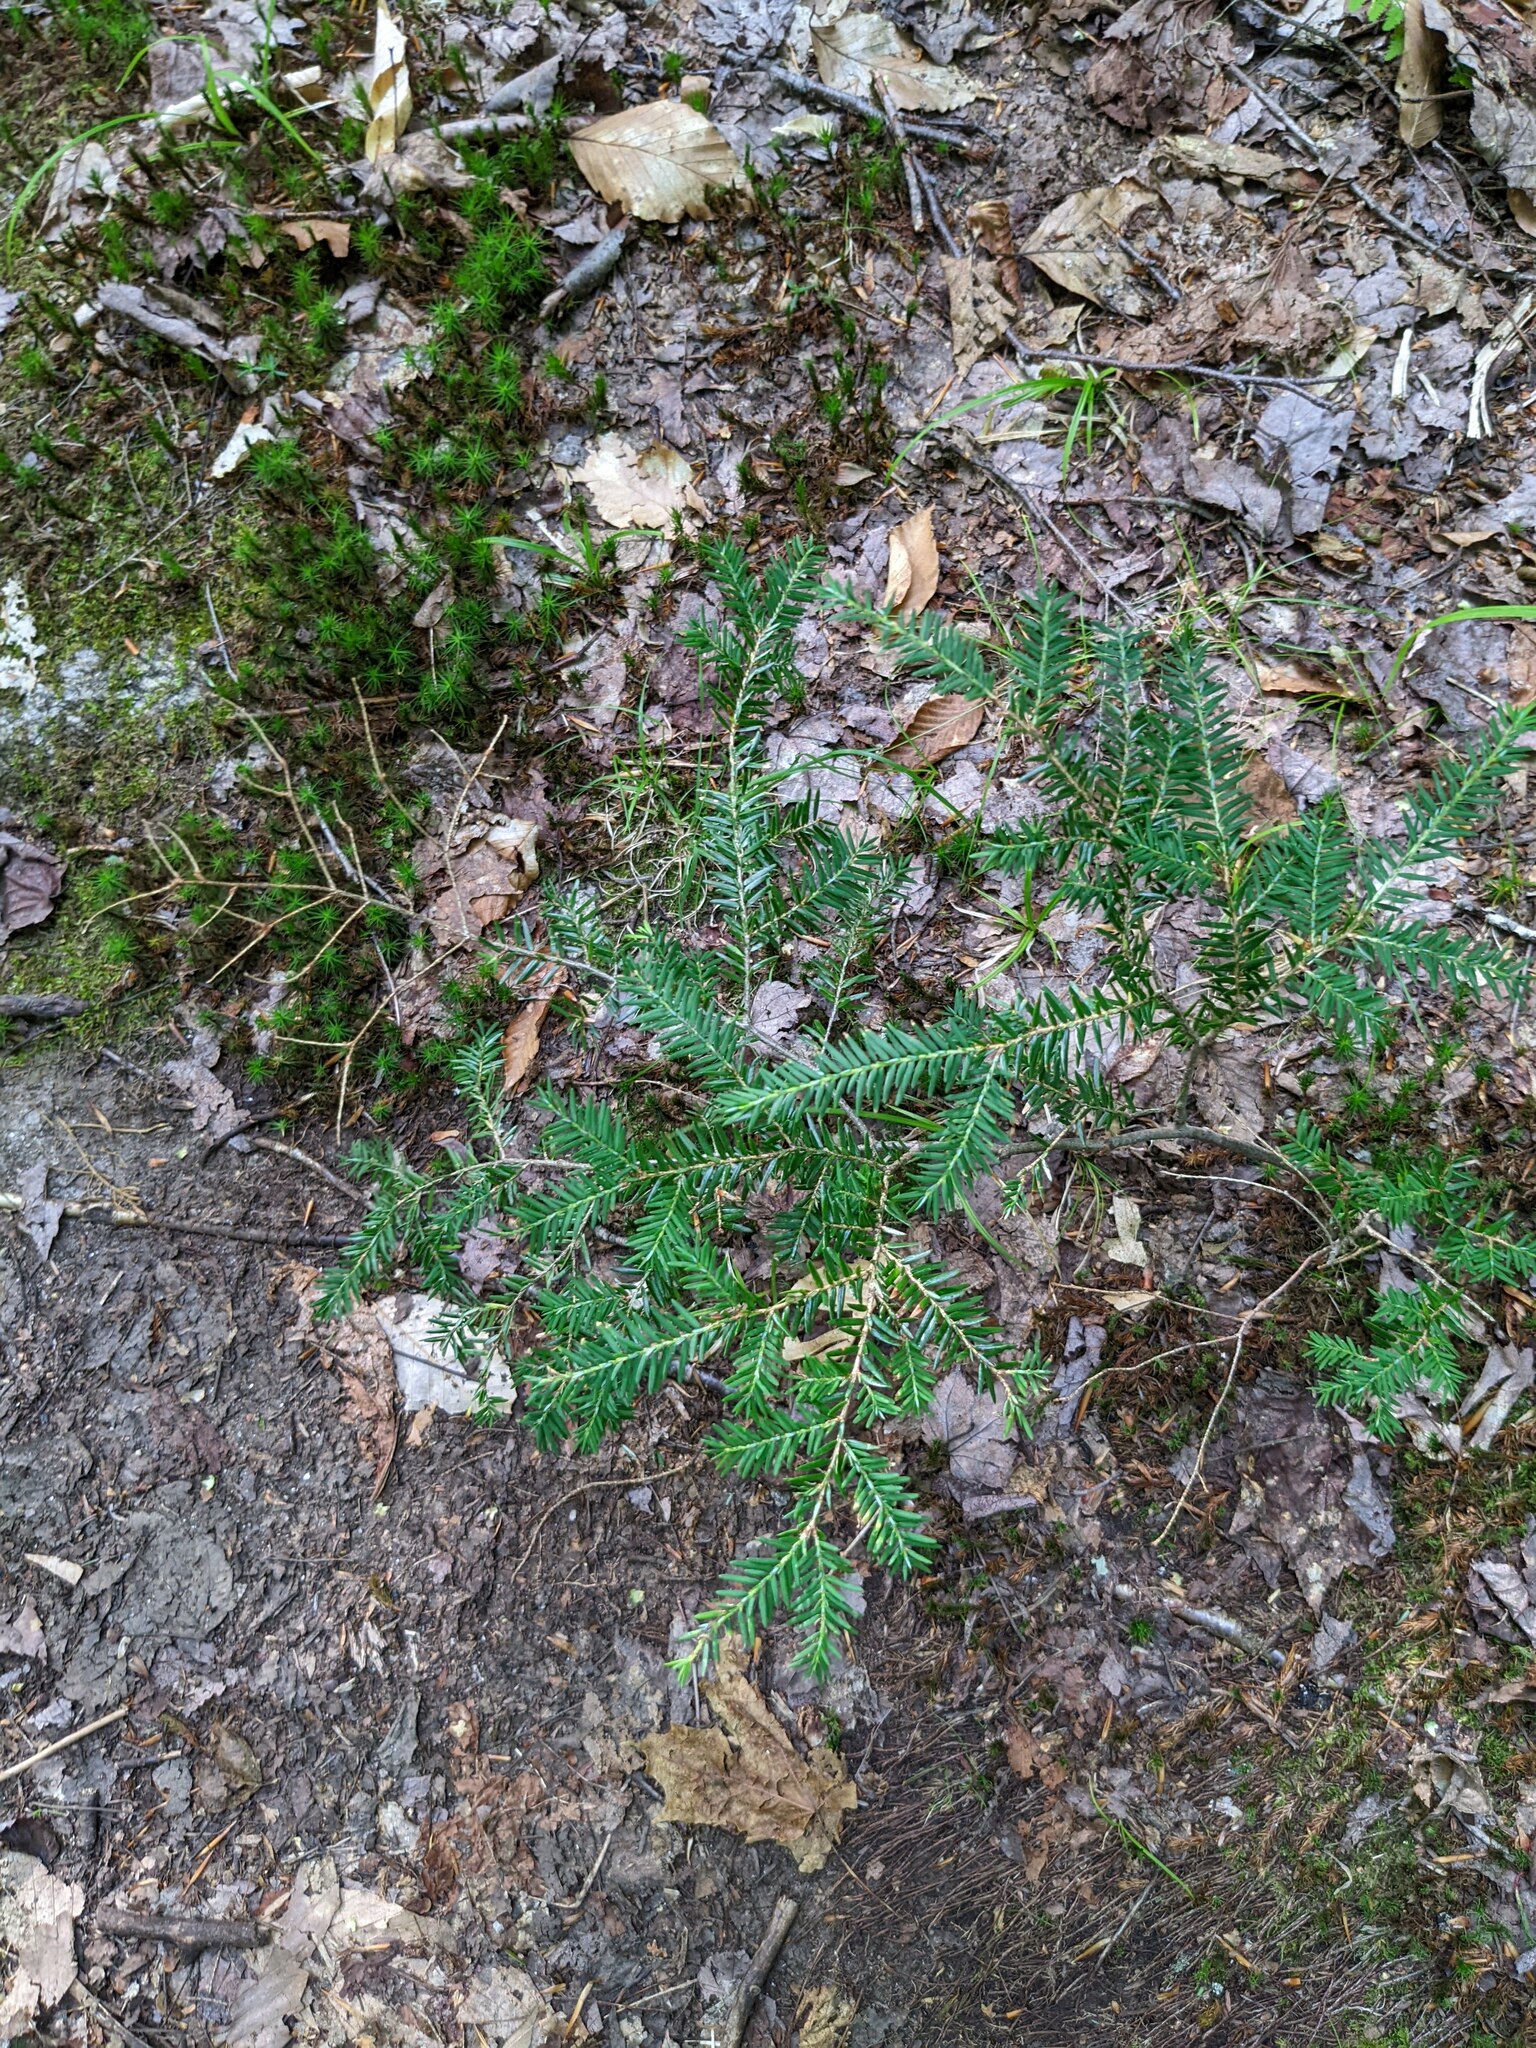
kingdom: Plantae
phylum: Tracheophyta
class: Pinopsida
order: Pinales
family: Pinaceae
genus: Tsuga
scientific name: Tsuga canadensis
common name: Eastern hemlock
